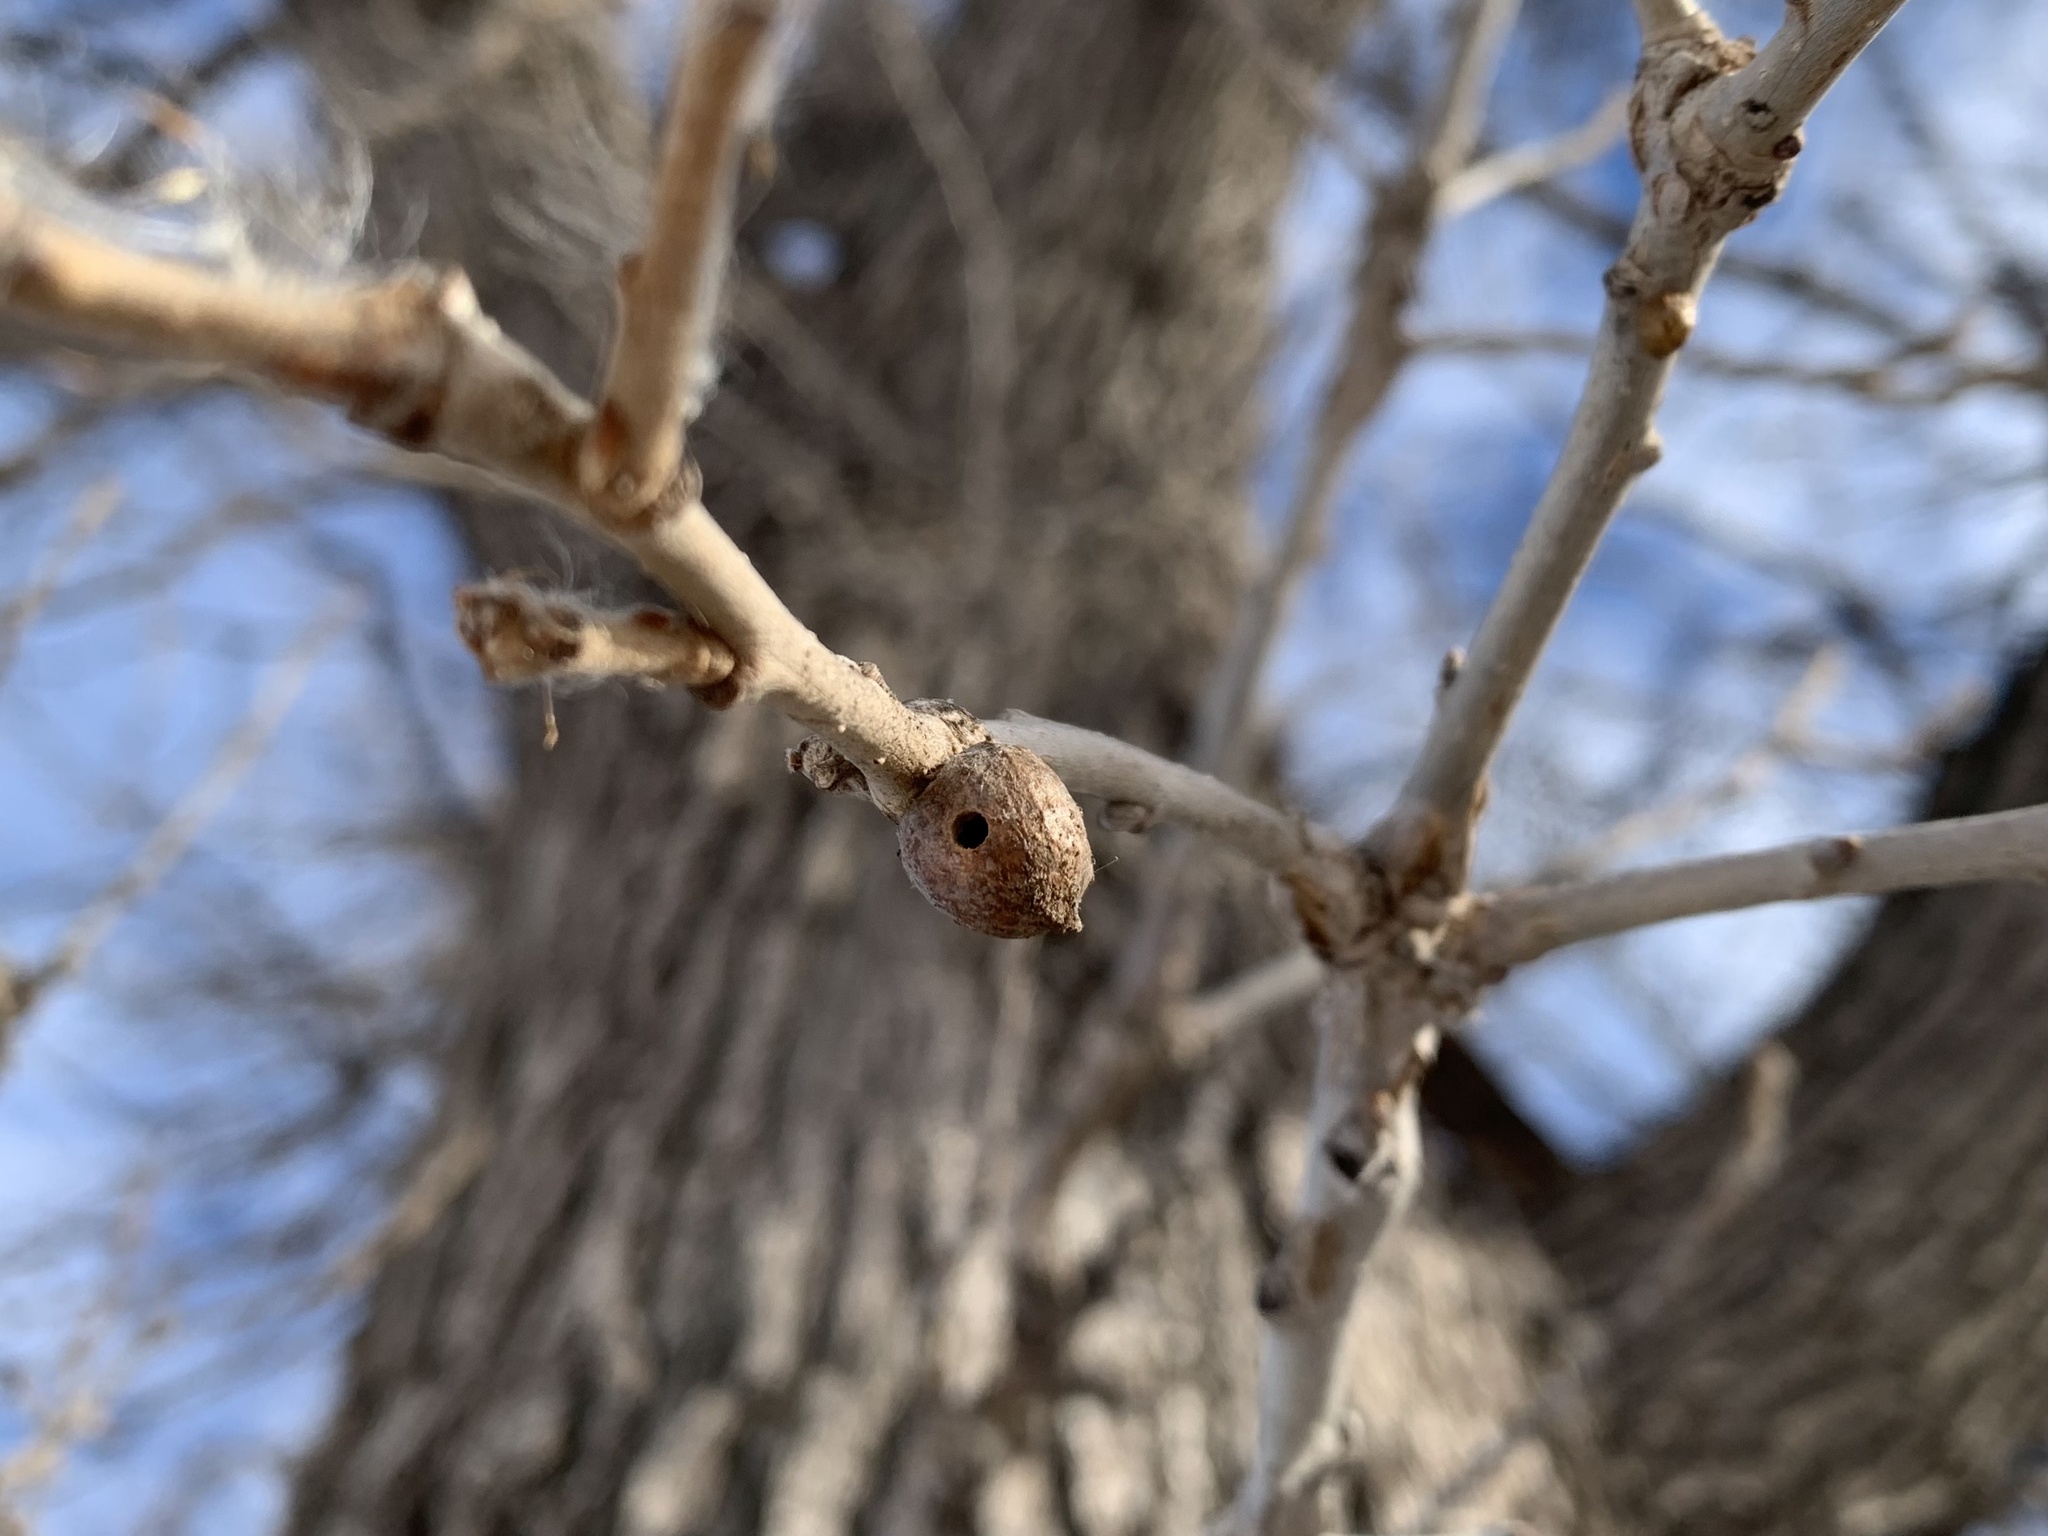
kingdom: Animalia
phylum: Arthropoda
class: Insecta
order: Hymenoptera
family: Cynipidae
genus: Disholcaspis
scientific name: Disholcaspis
